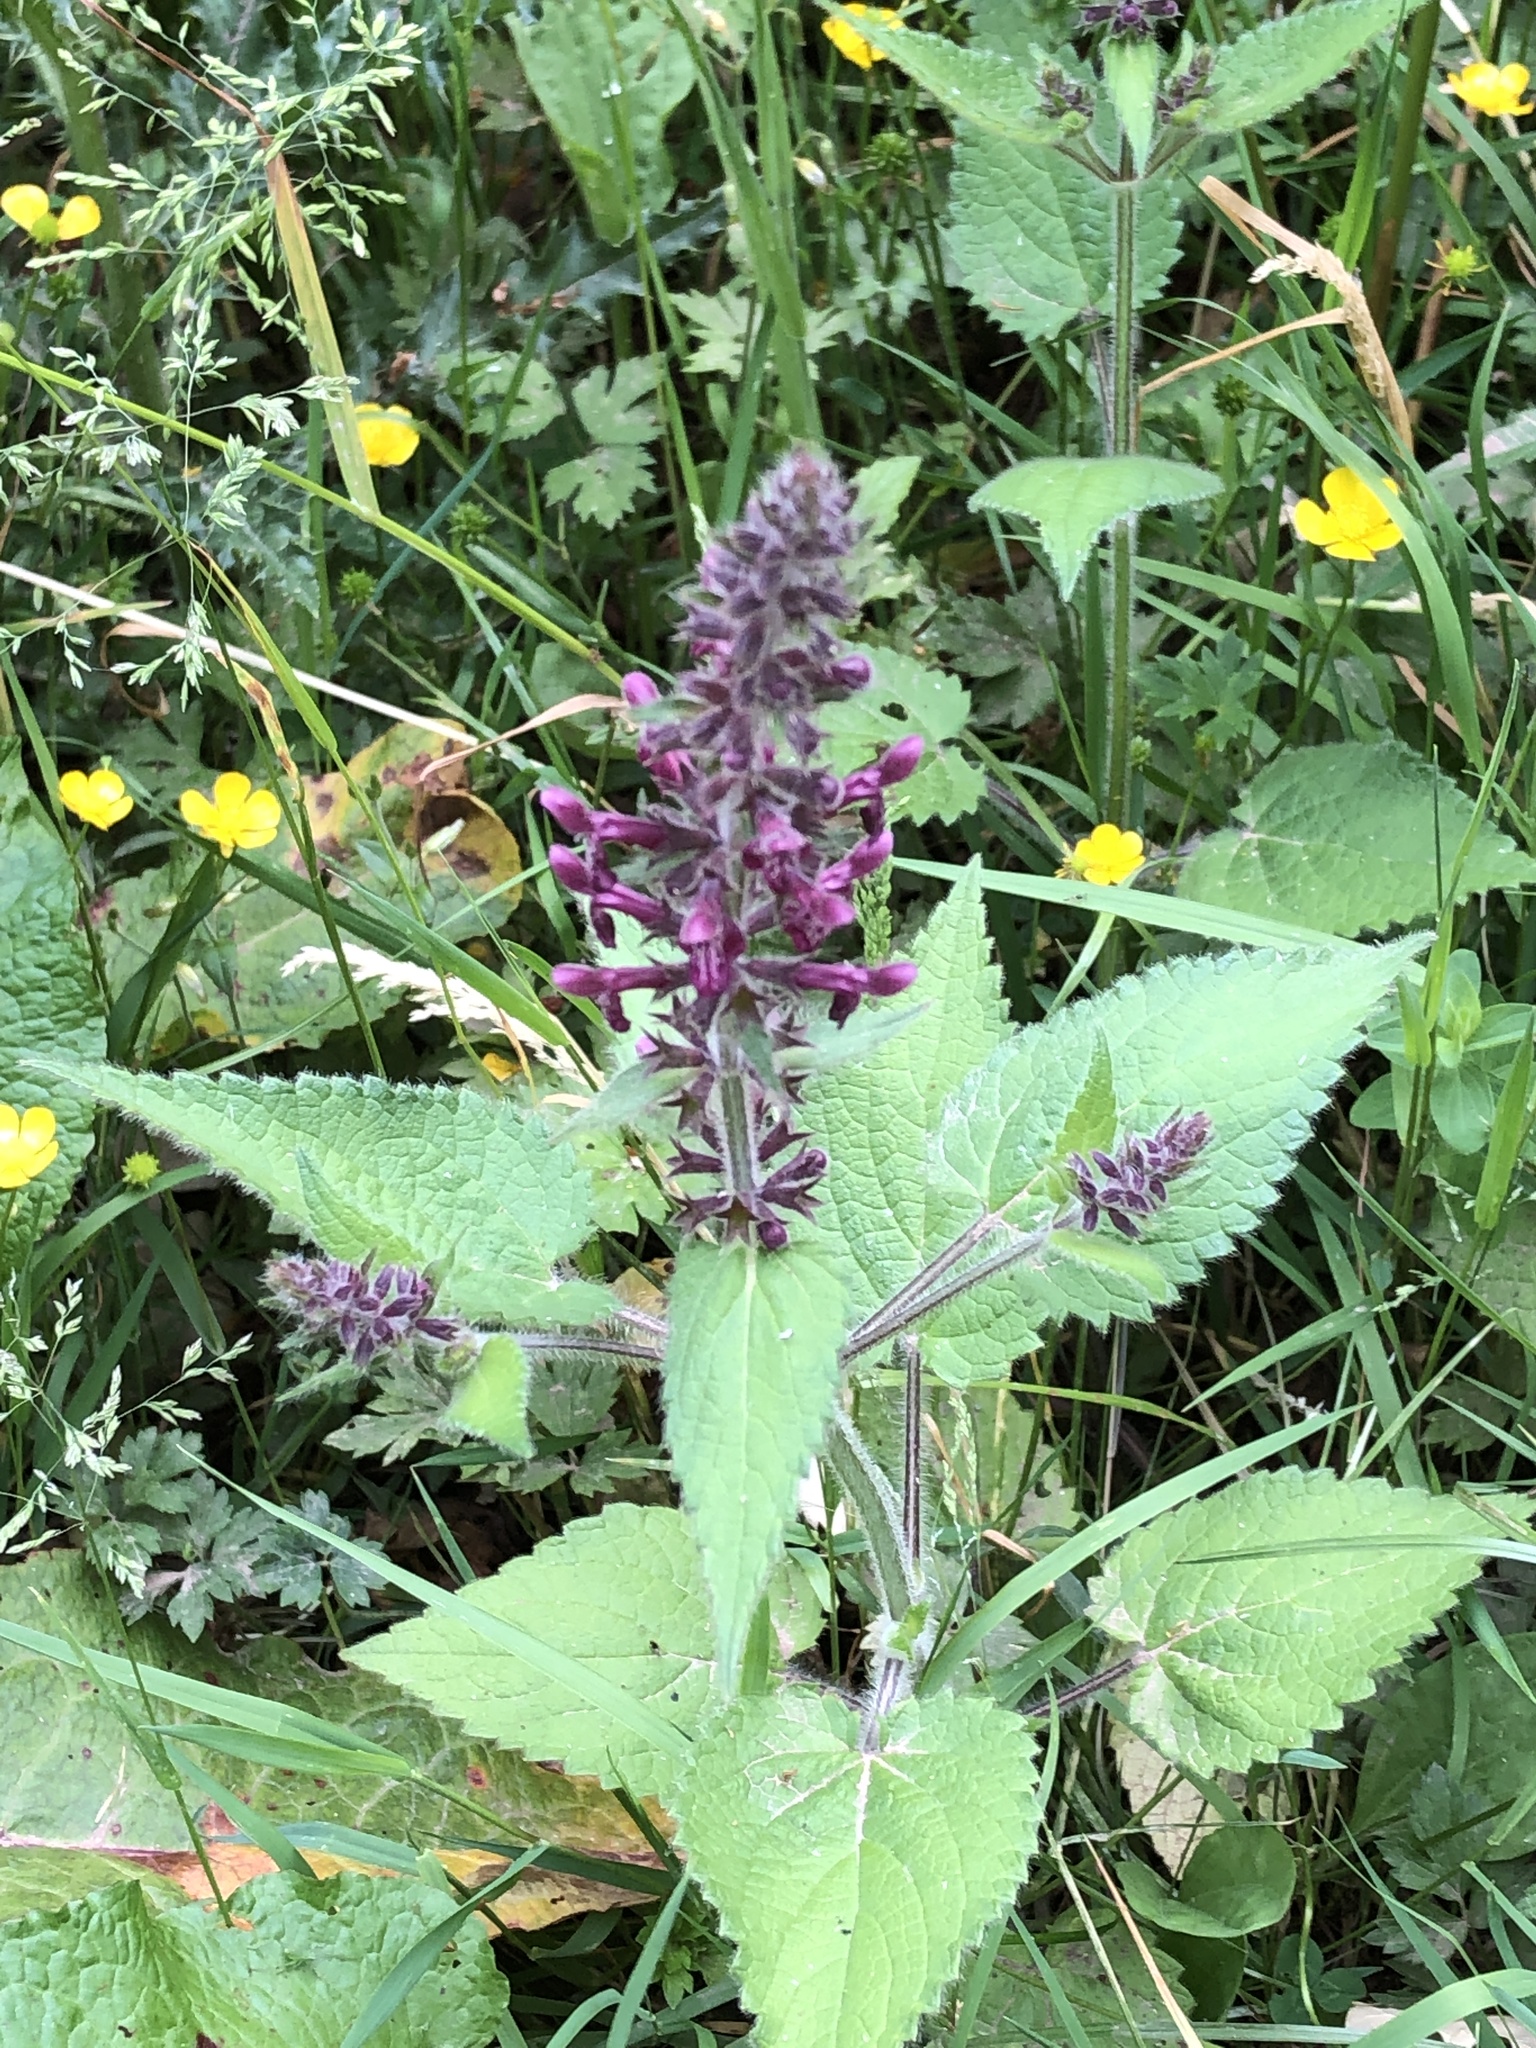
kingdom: Plantae
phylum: Tracheophyta
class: Magnoliopsida
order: Lamiales
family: Lamiaceae
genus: Stachys
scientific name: Stachys sylvatica
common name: Hedge woundwort
